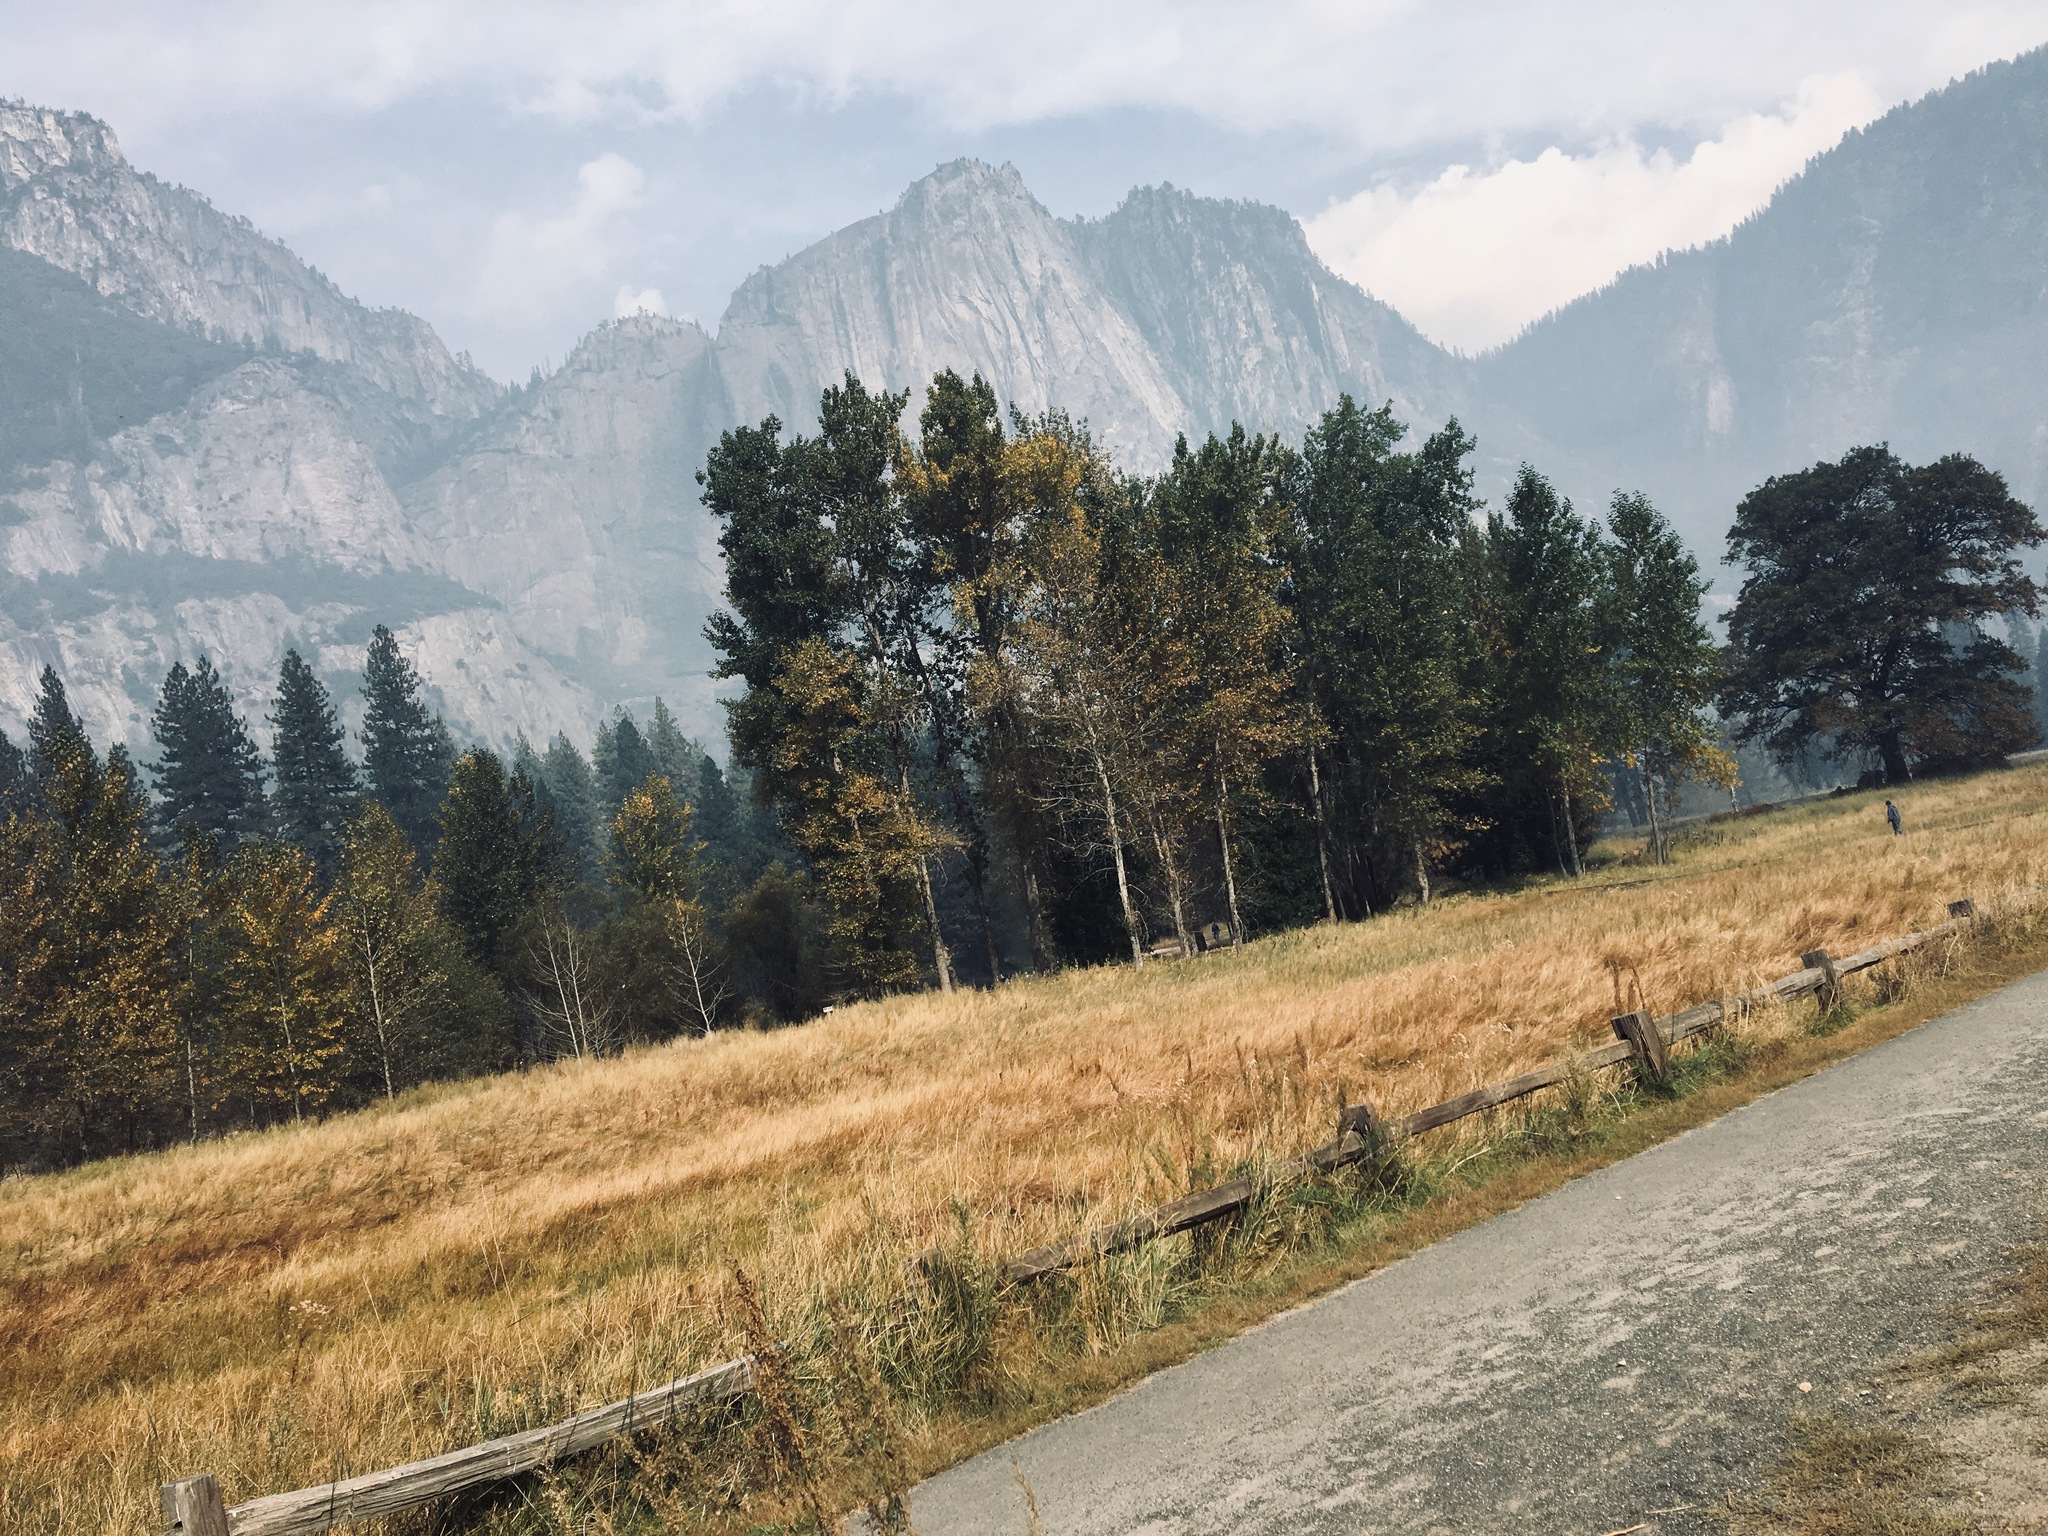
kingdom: Plantae
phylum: Tracheophyta
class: Magnoliopsida
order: Malpighiales
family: Salicaceae
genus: Populus
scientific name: Populus trichocarpa
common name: Black cottonwood
